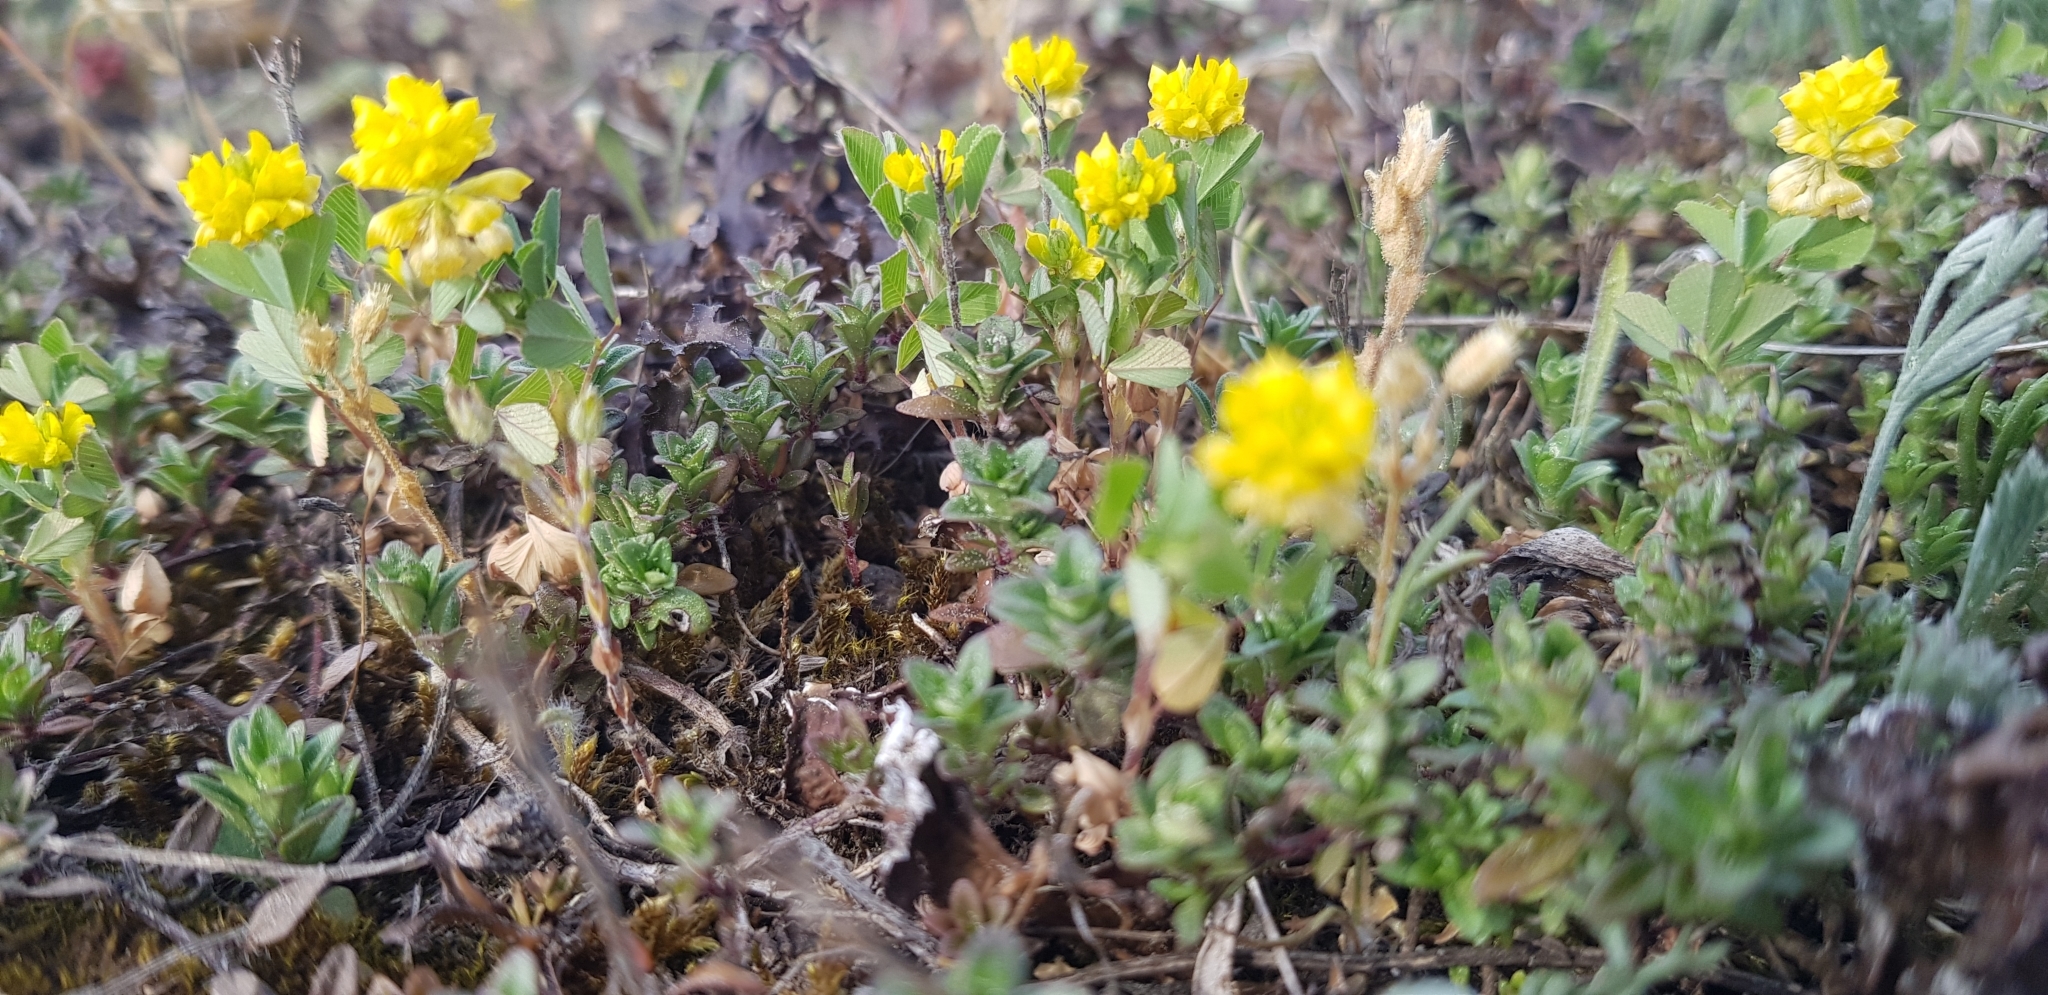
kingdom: Plantae
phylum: Tracheophyta
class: Magnoliopsida
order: Fabales
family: Fabaceae
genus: Trifolium
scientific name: Trifolium campestre
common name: Field clover
